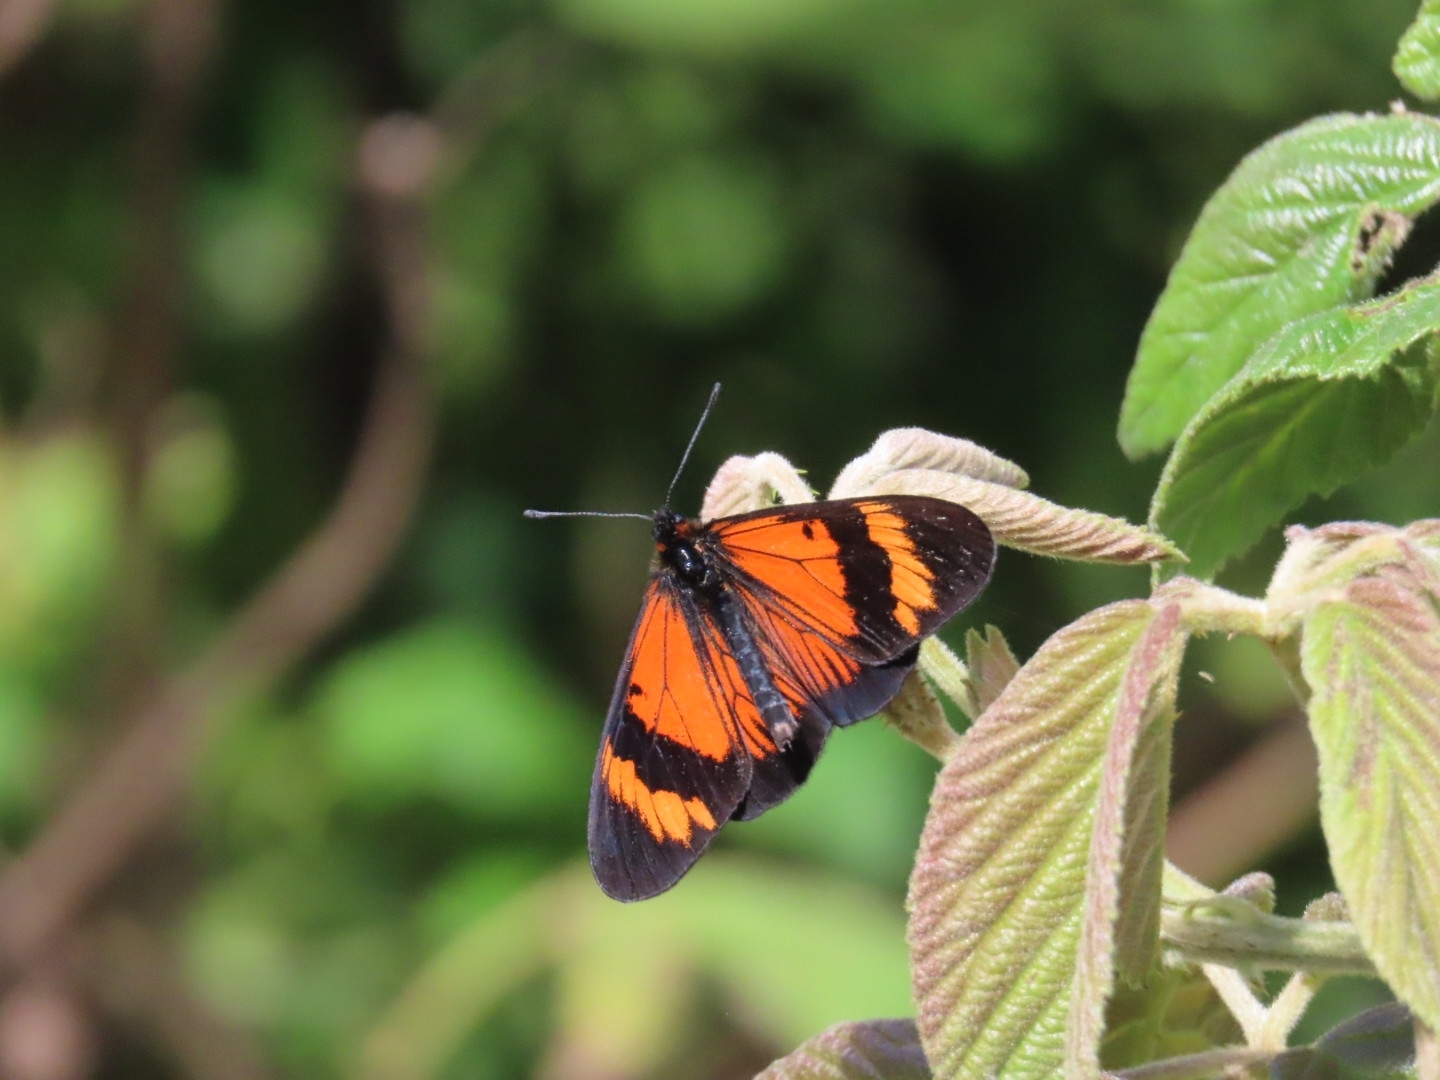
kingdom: Animalia
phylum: Arthropoda
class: Insecta
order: Lepidoptera
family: Nymphalidae
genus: Actinote
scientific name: Actinote negra
